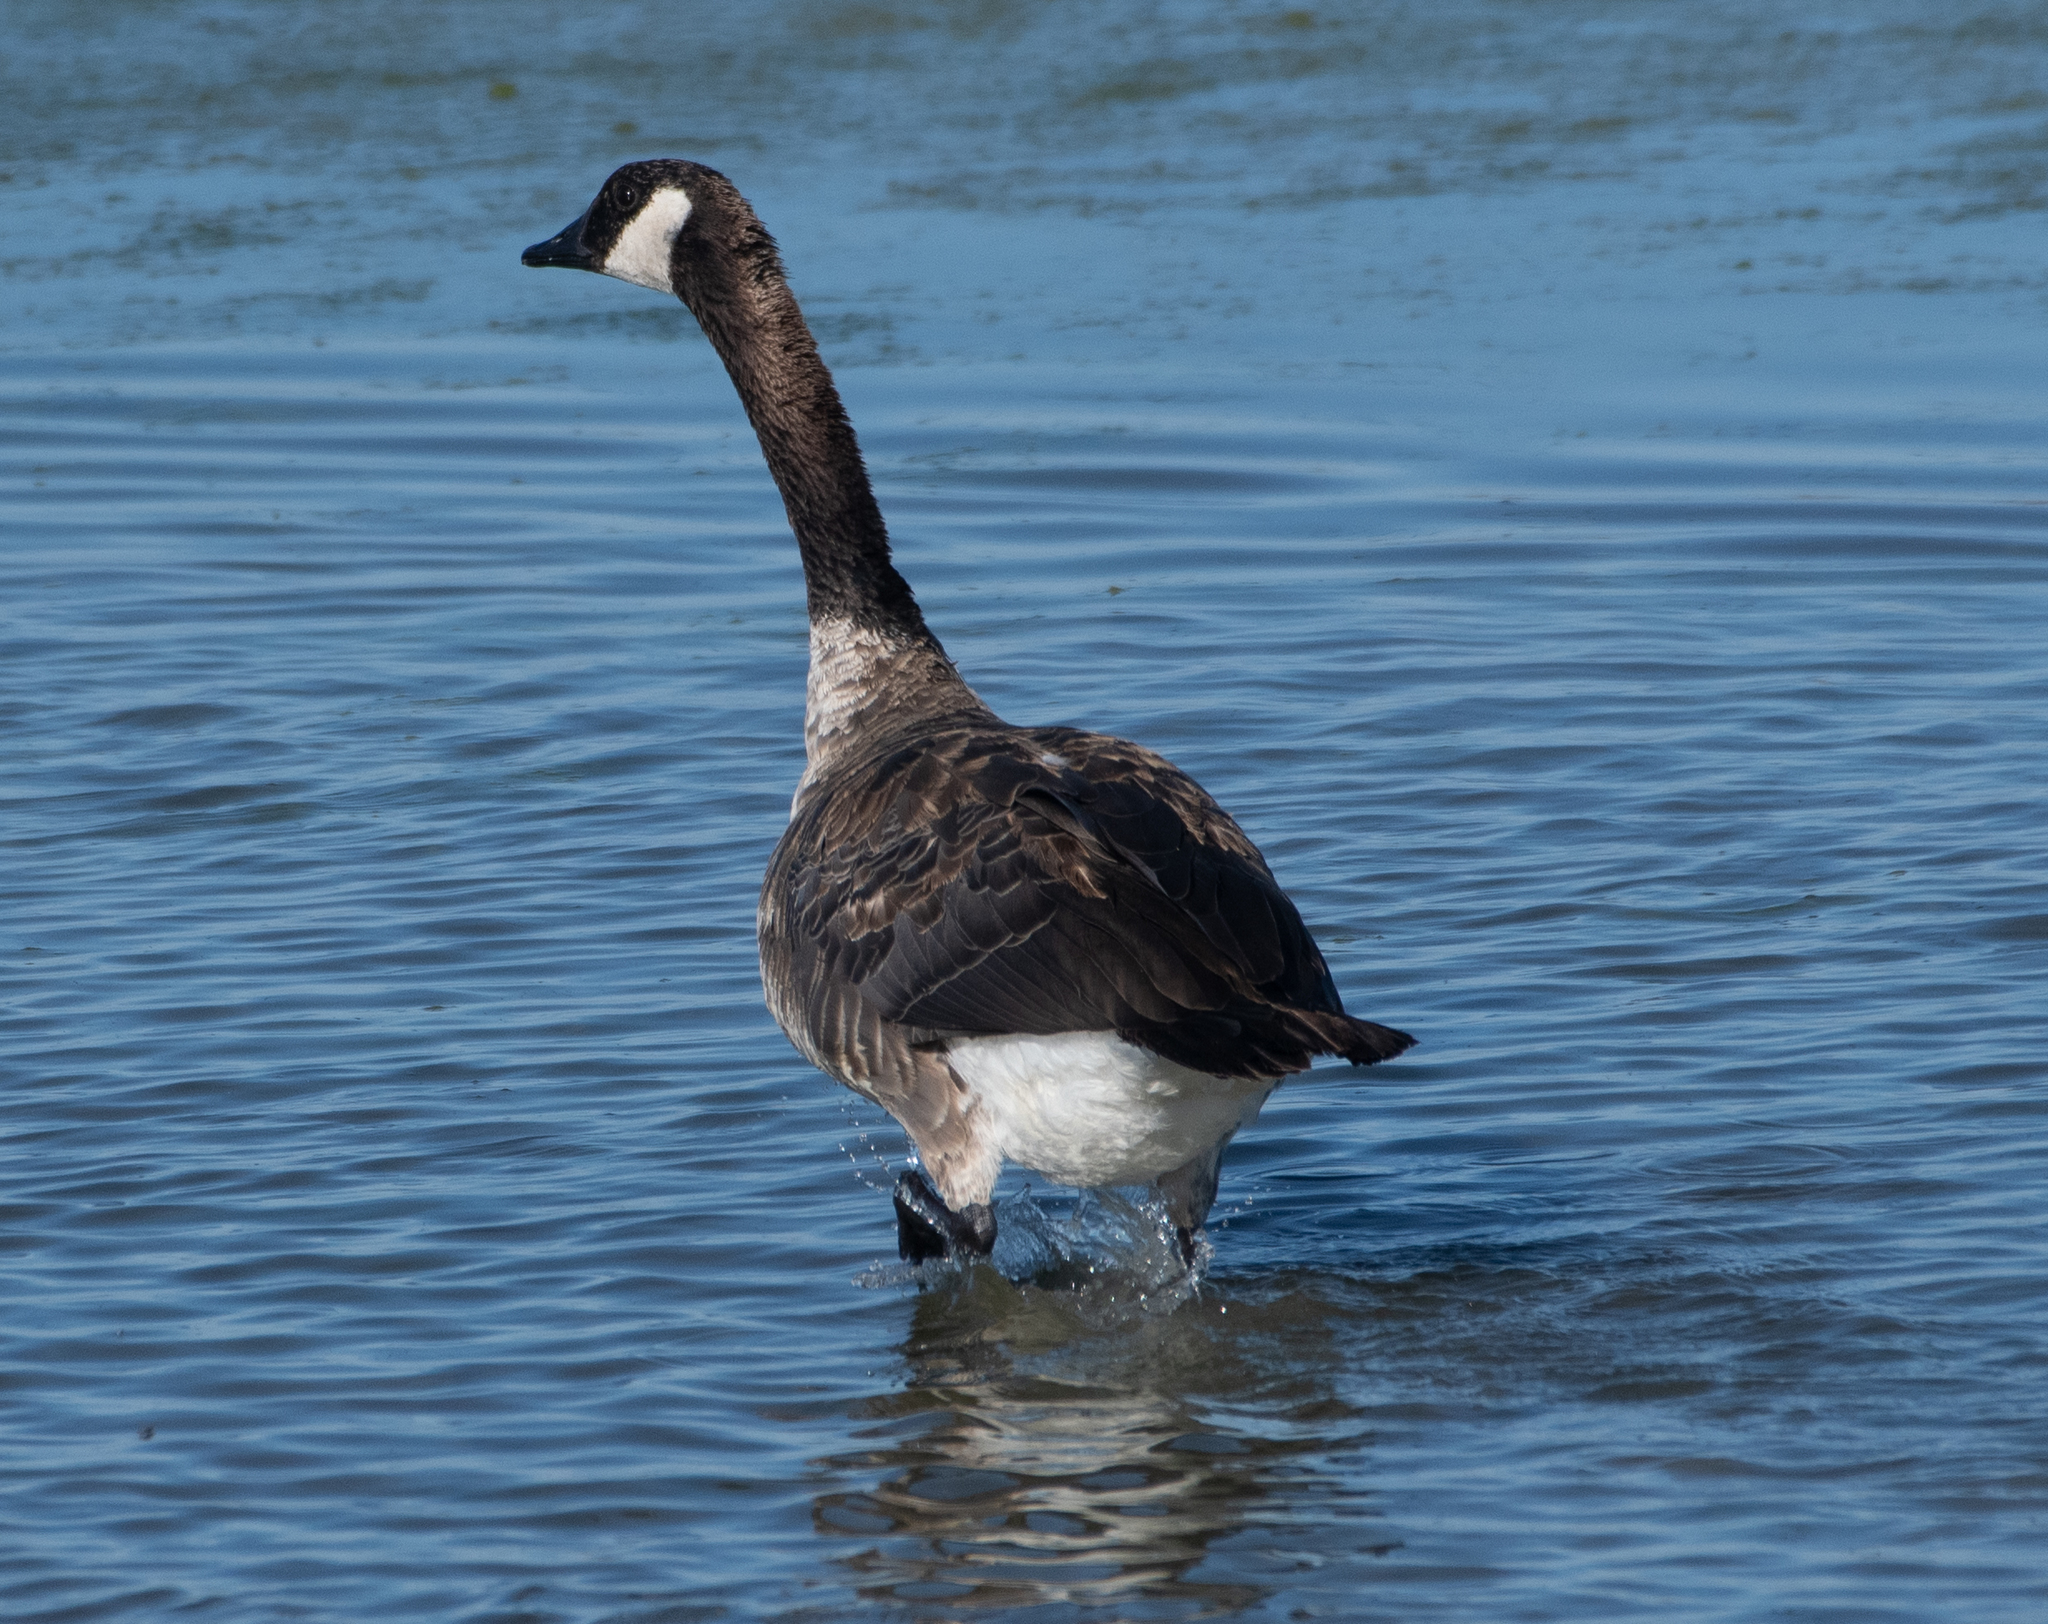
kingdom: Animalia
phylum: Chordata
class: Aves
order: Anseriformes
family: Anatidae
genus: Branta
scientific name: Branta canadensis
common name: Canada goose
